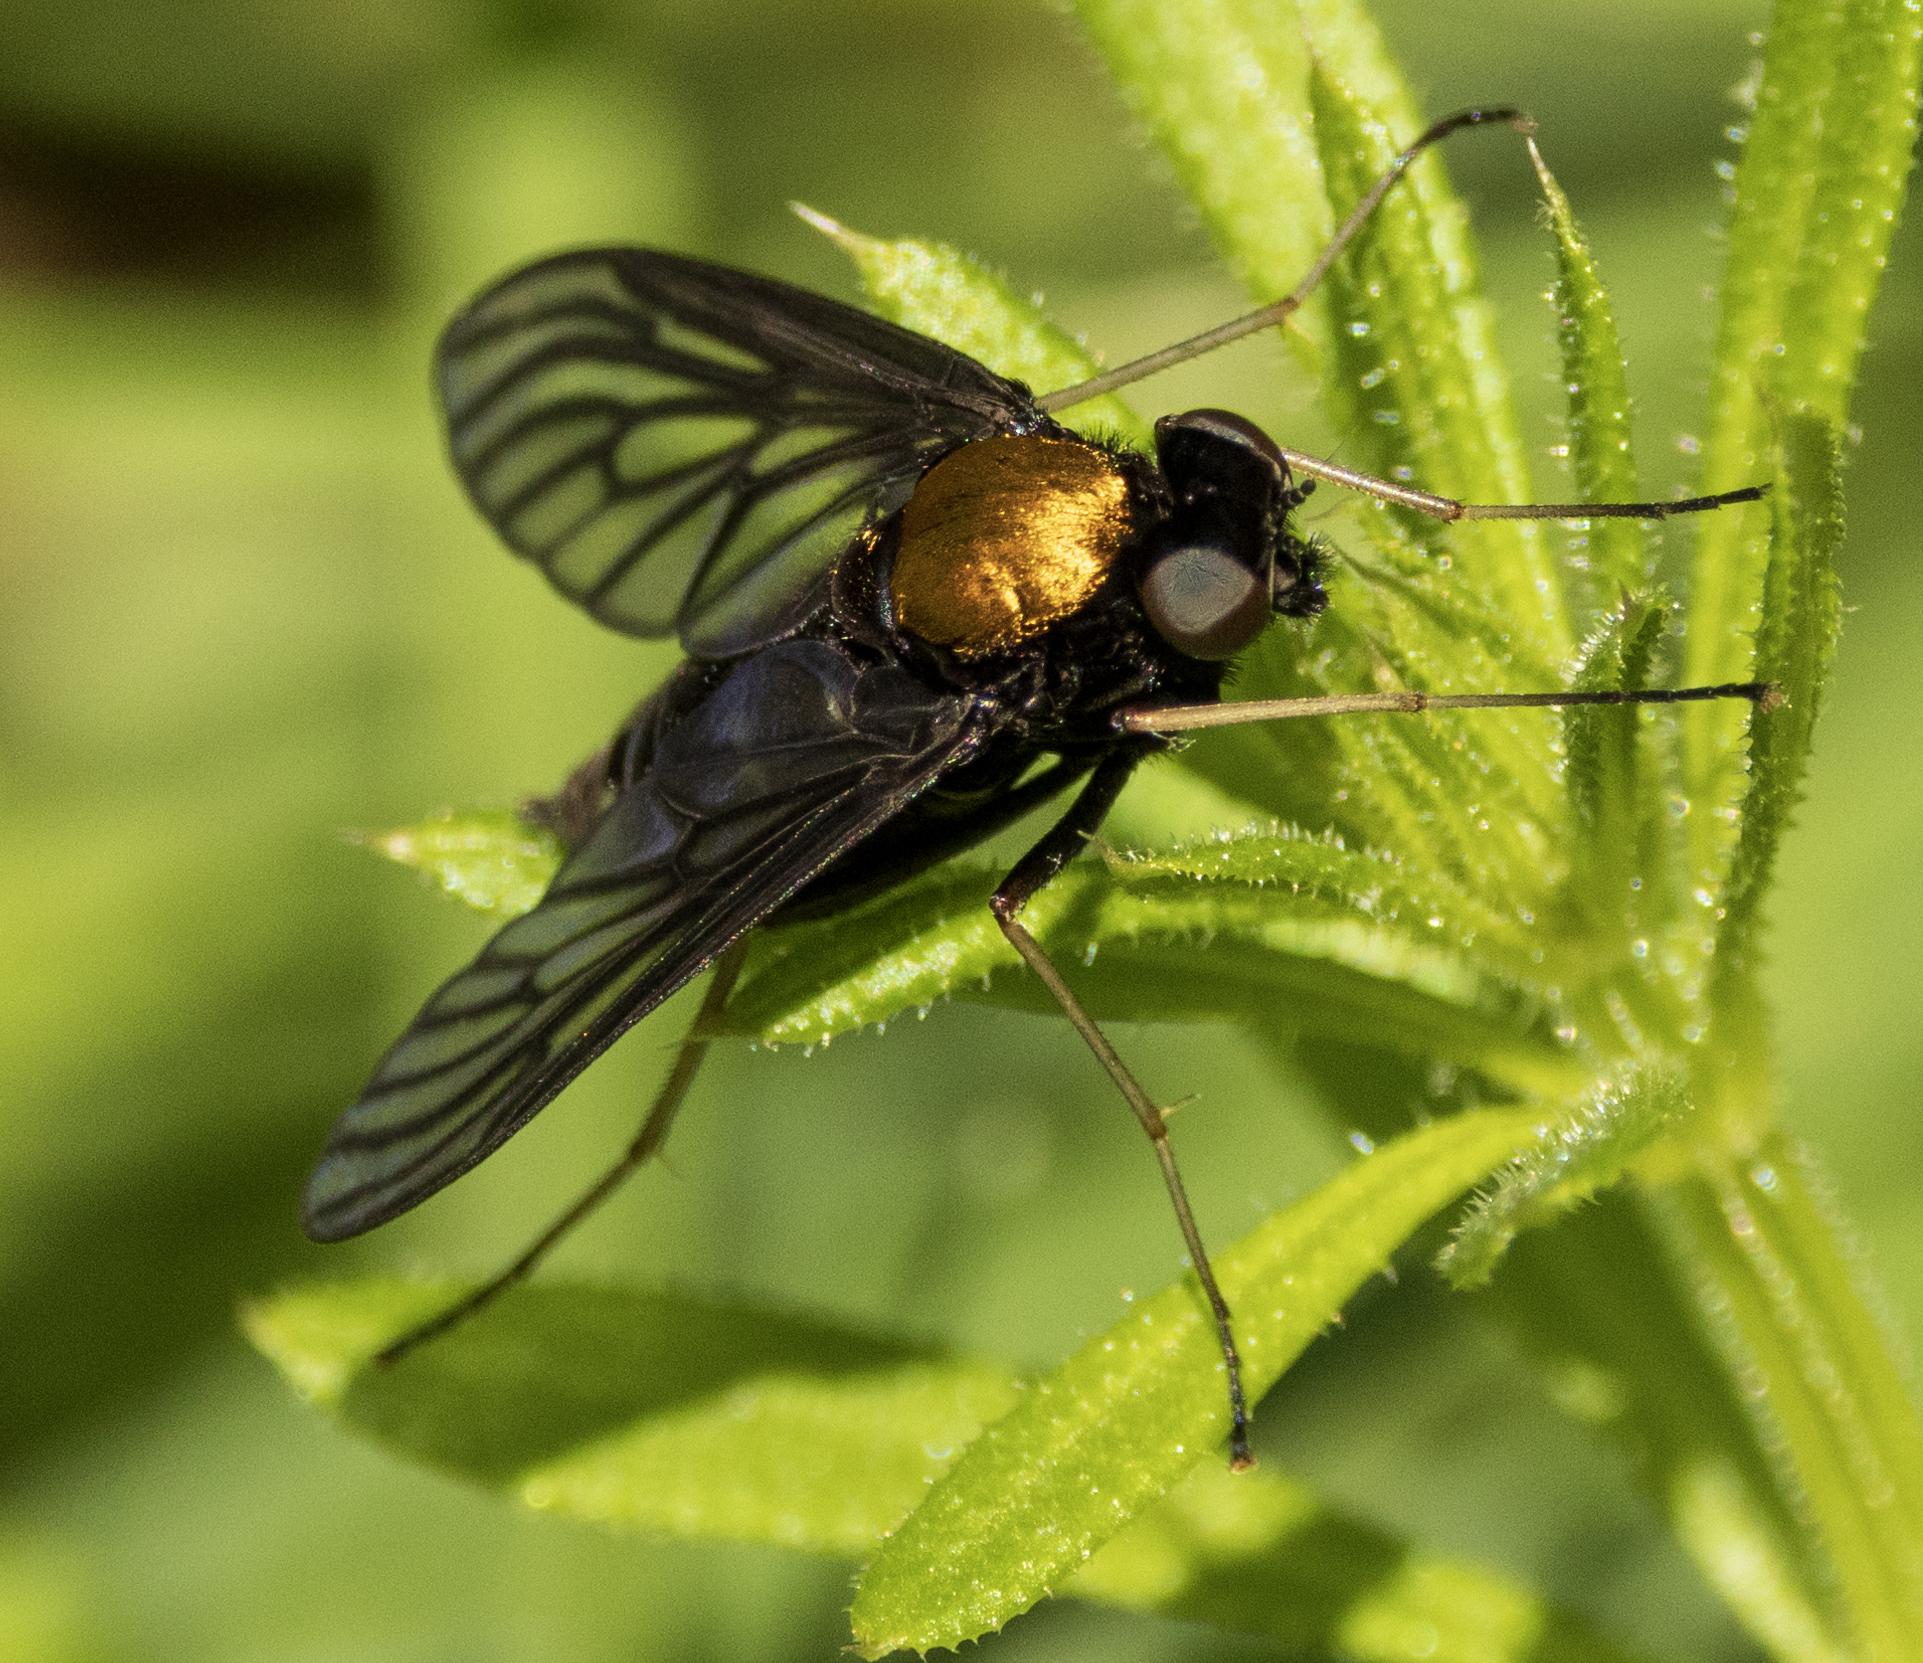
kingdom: Animalia
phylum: Arthropoda
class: Insecta
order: Diptera
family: Rhagionidae
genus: Chrysopilus
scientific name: Chrysopilus thoracicus
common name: Golden-backed snipe fly
